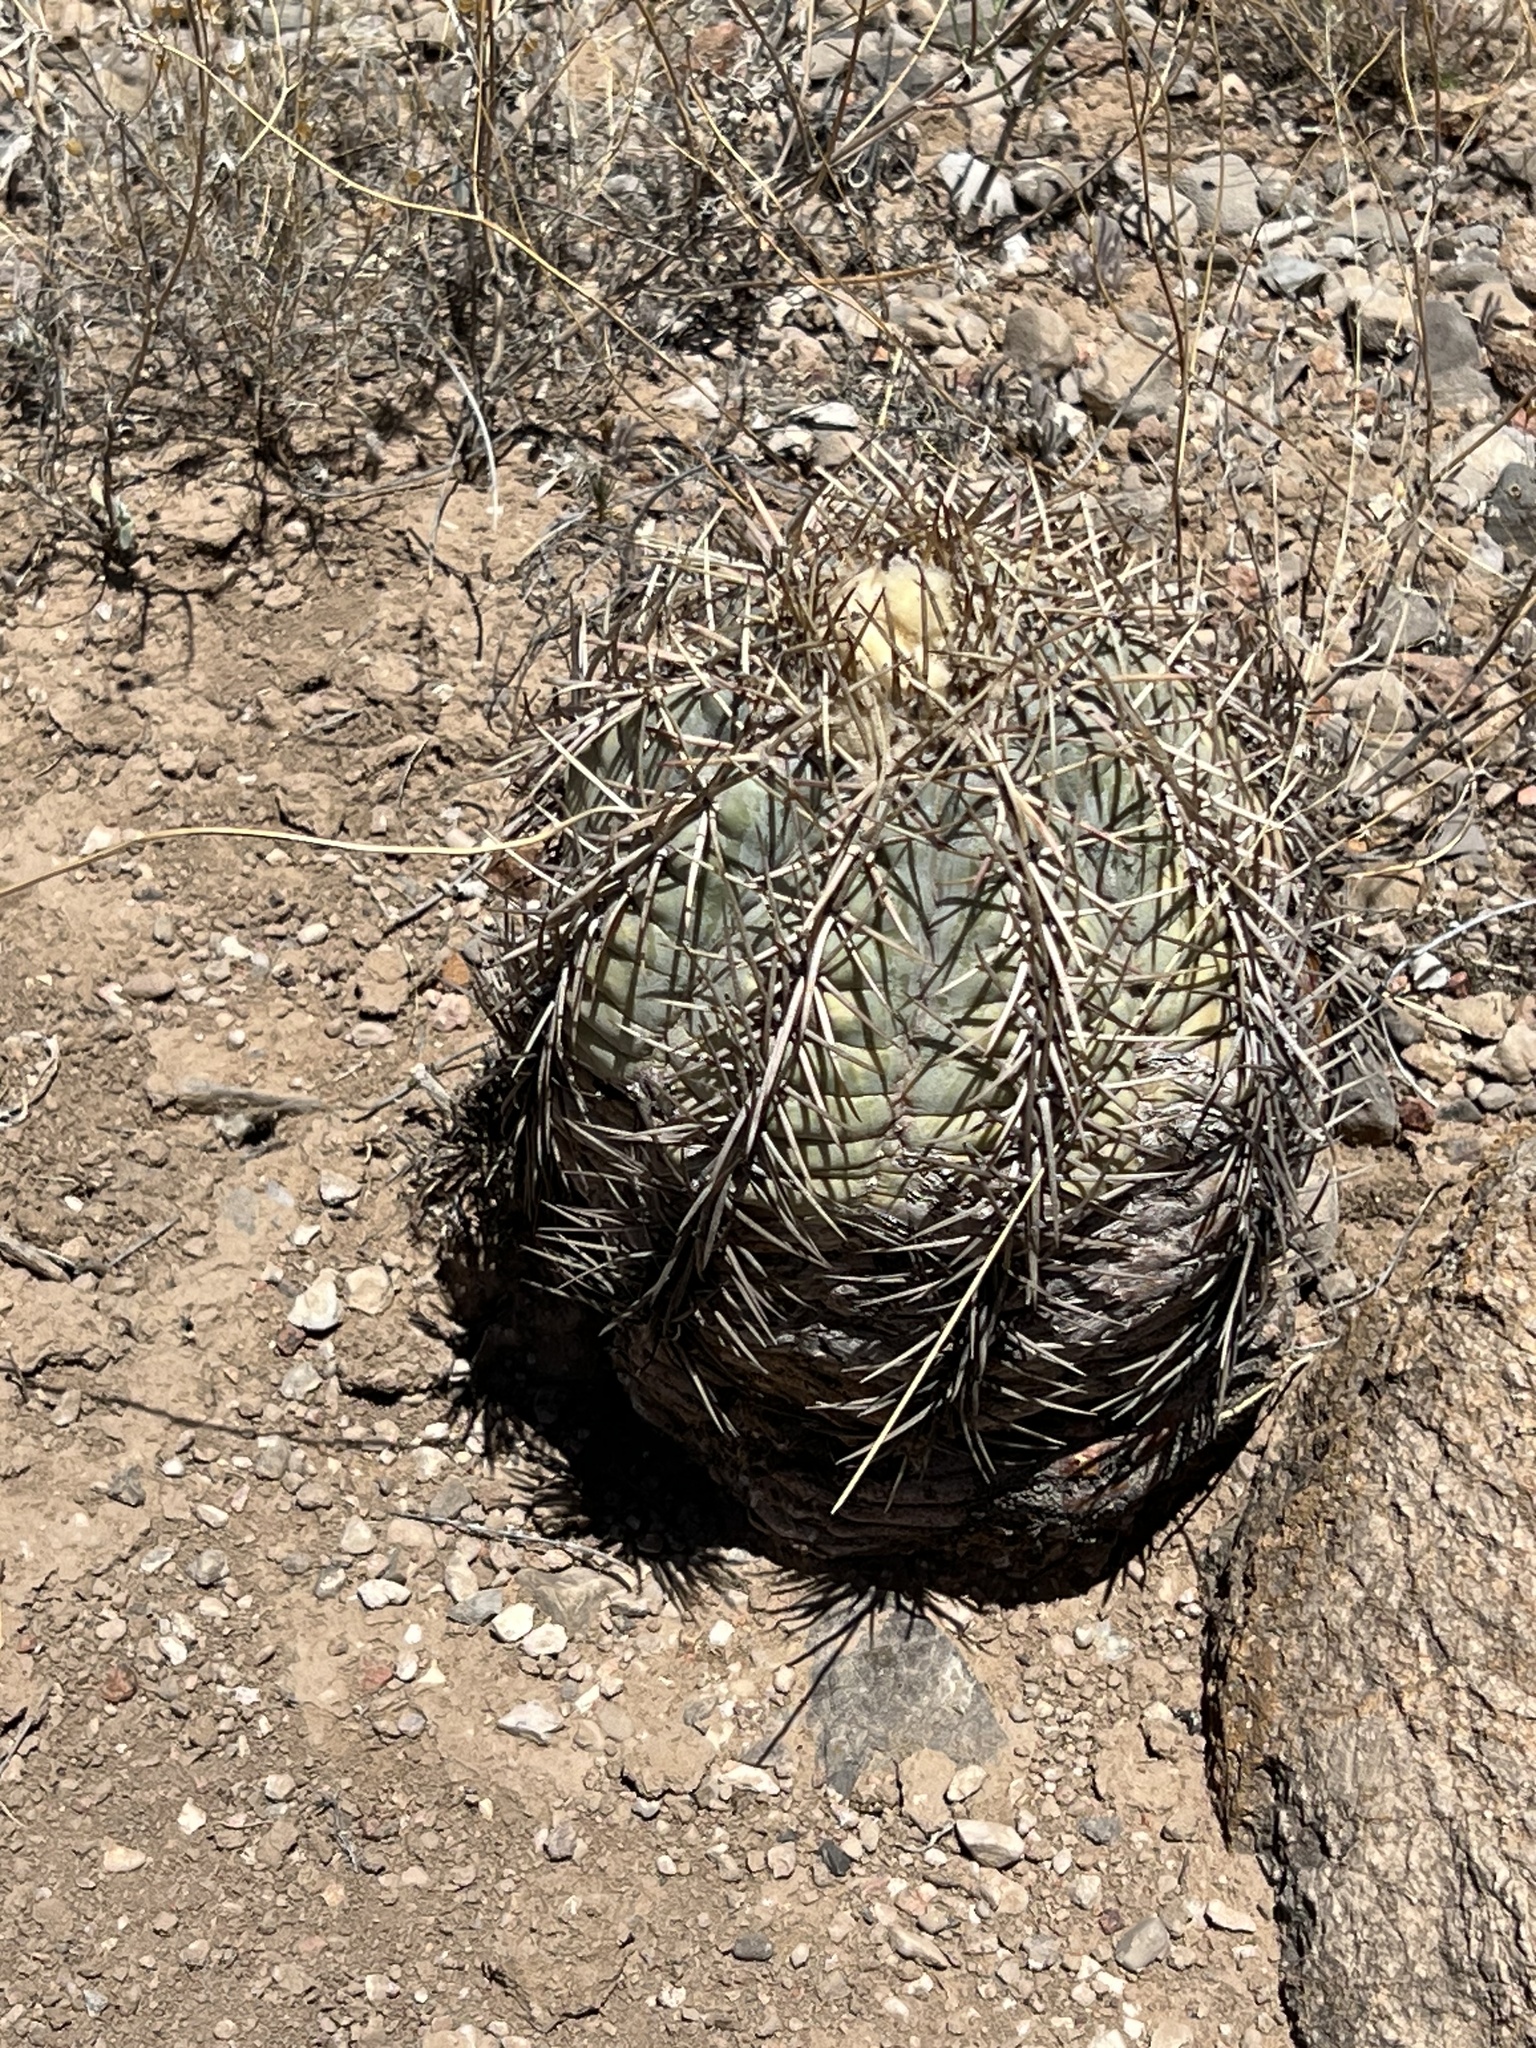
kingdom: Plantae
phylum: Tracheophyta
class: Magnoliopsida
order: Caryophyllales
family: Cactaceae
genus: Echinocactus
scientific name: Echinocactus horizonthalonius
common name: Devilshead
